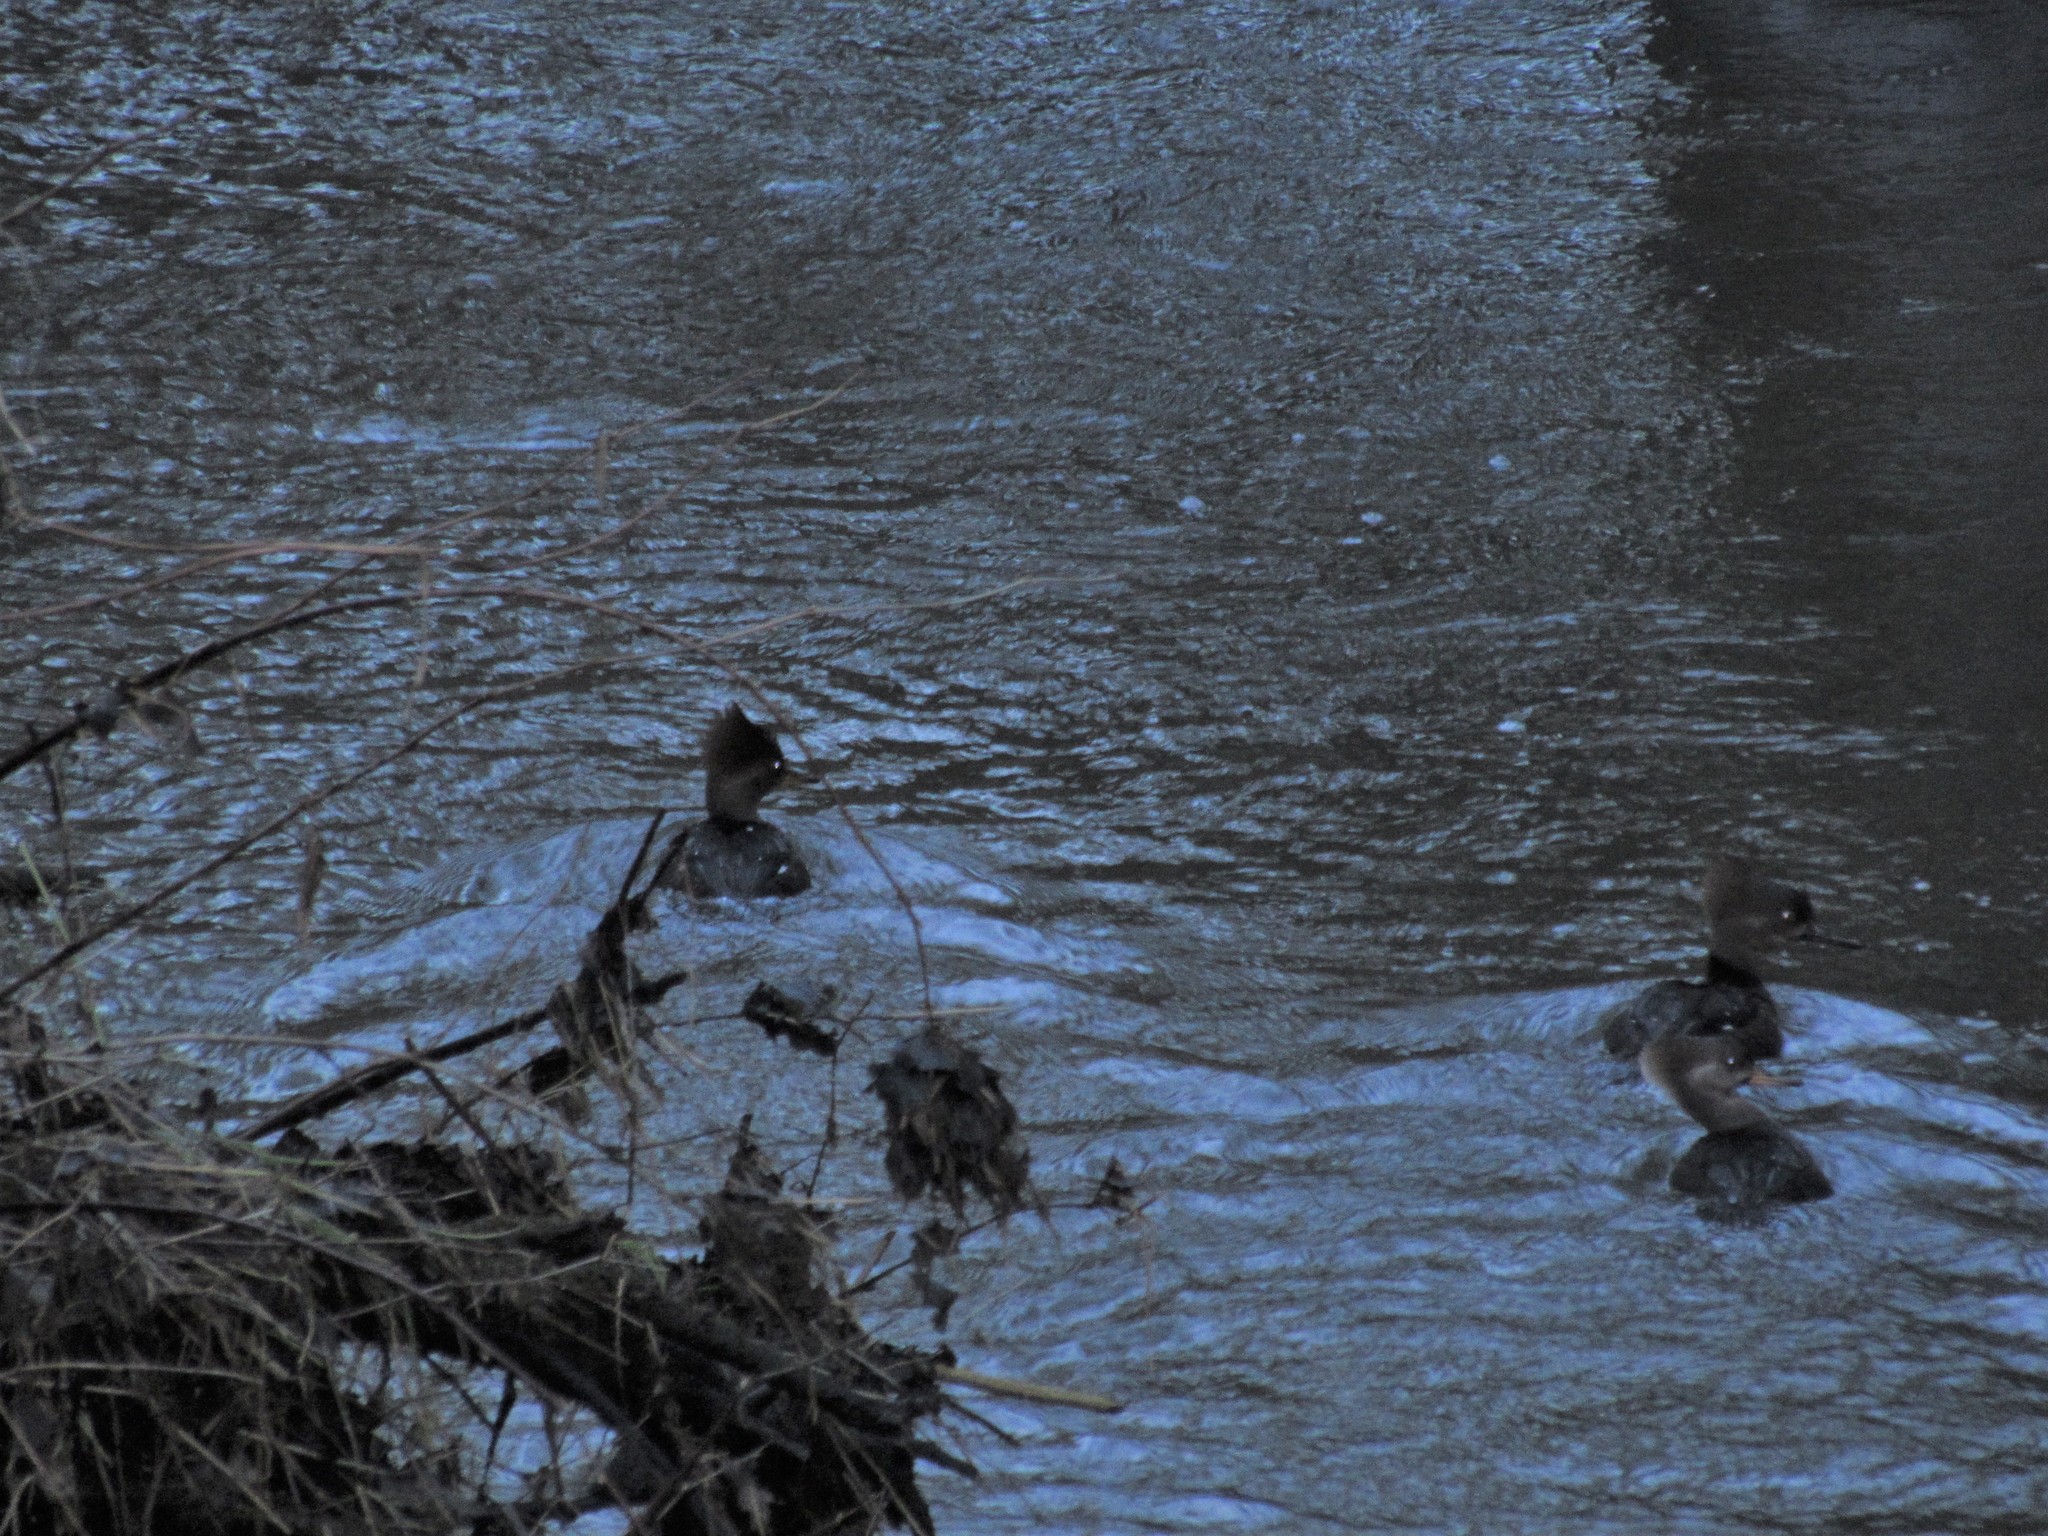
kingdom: Animalia
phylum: Chordata
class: Aves
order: Anseriformes
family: Anatidae
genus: Lophodytes
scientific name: Lophodytes cucullatus
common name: Hooded merganser
